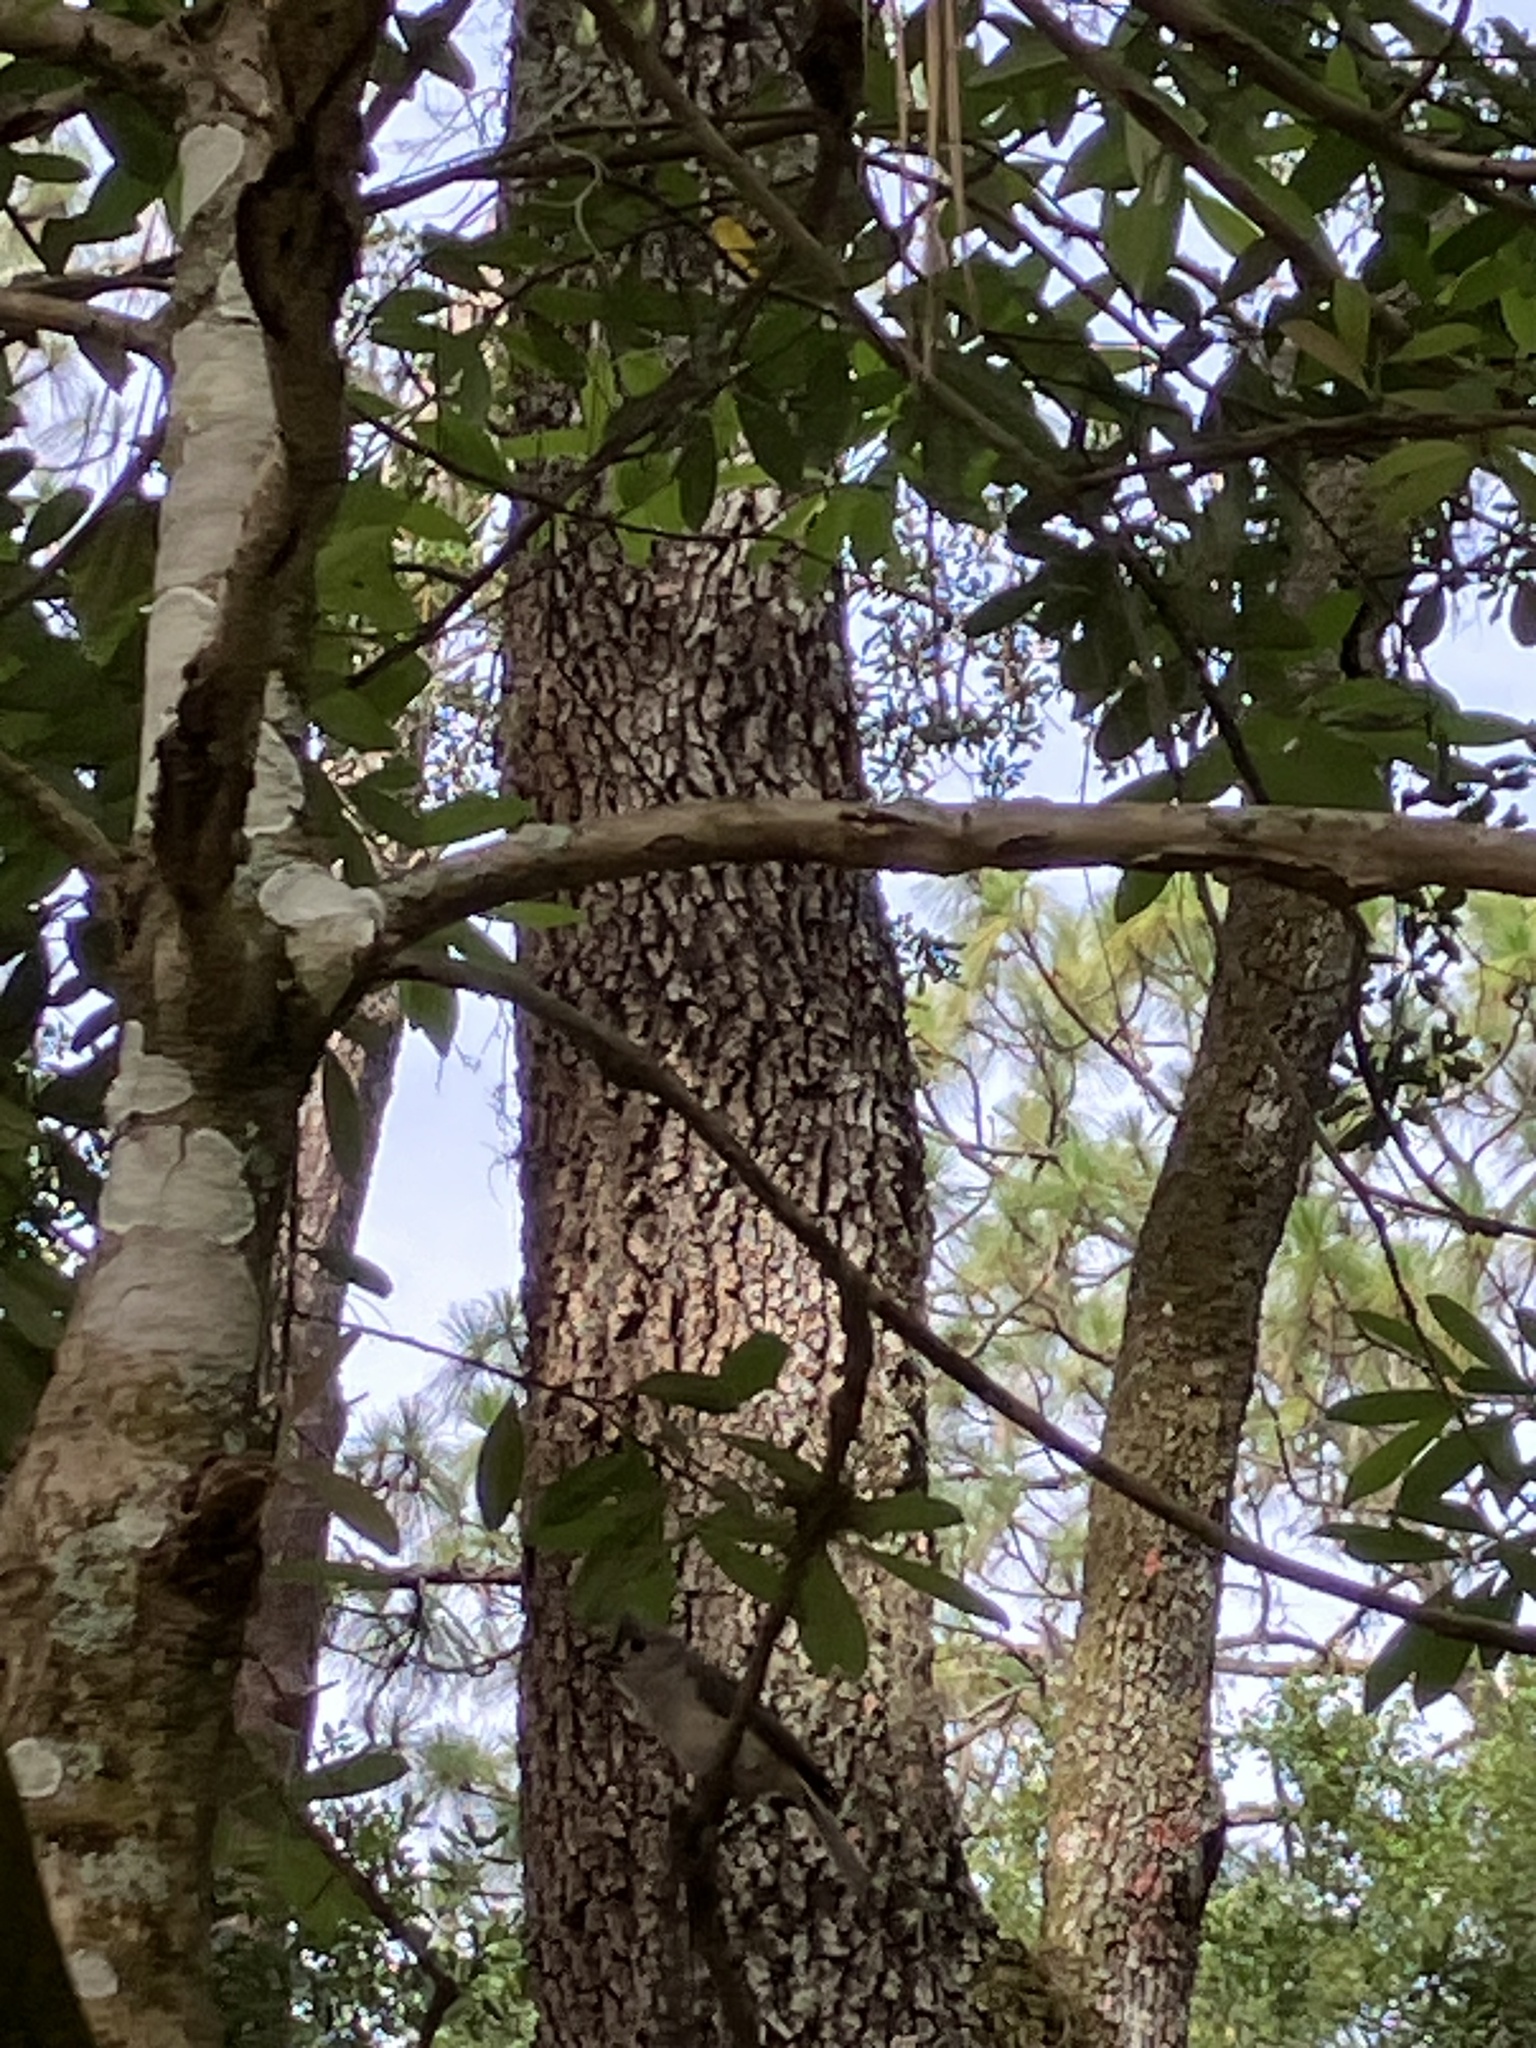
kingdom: Animalia
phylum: Chordata
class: Aves
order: Passeriformes
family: Paridae
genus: Baeolophus
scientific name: Baeolophus bicolor
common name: Tufted titmouse
